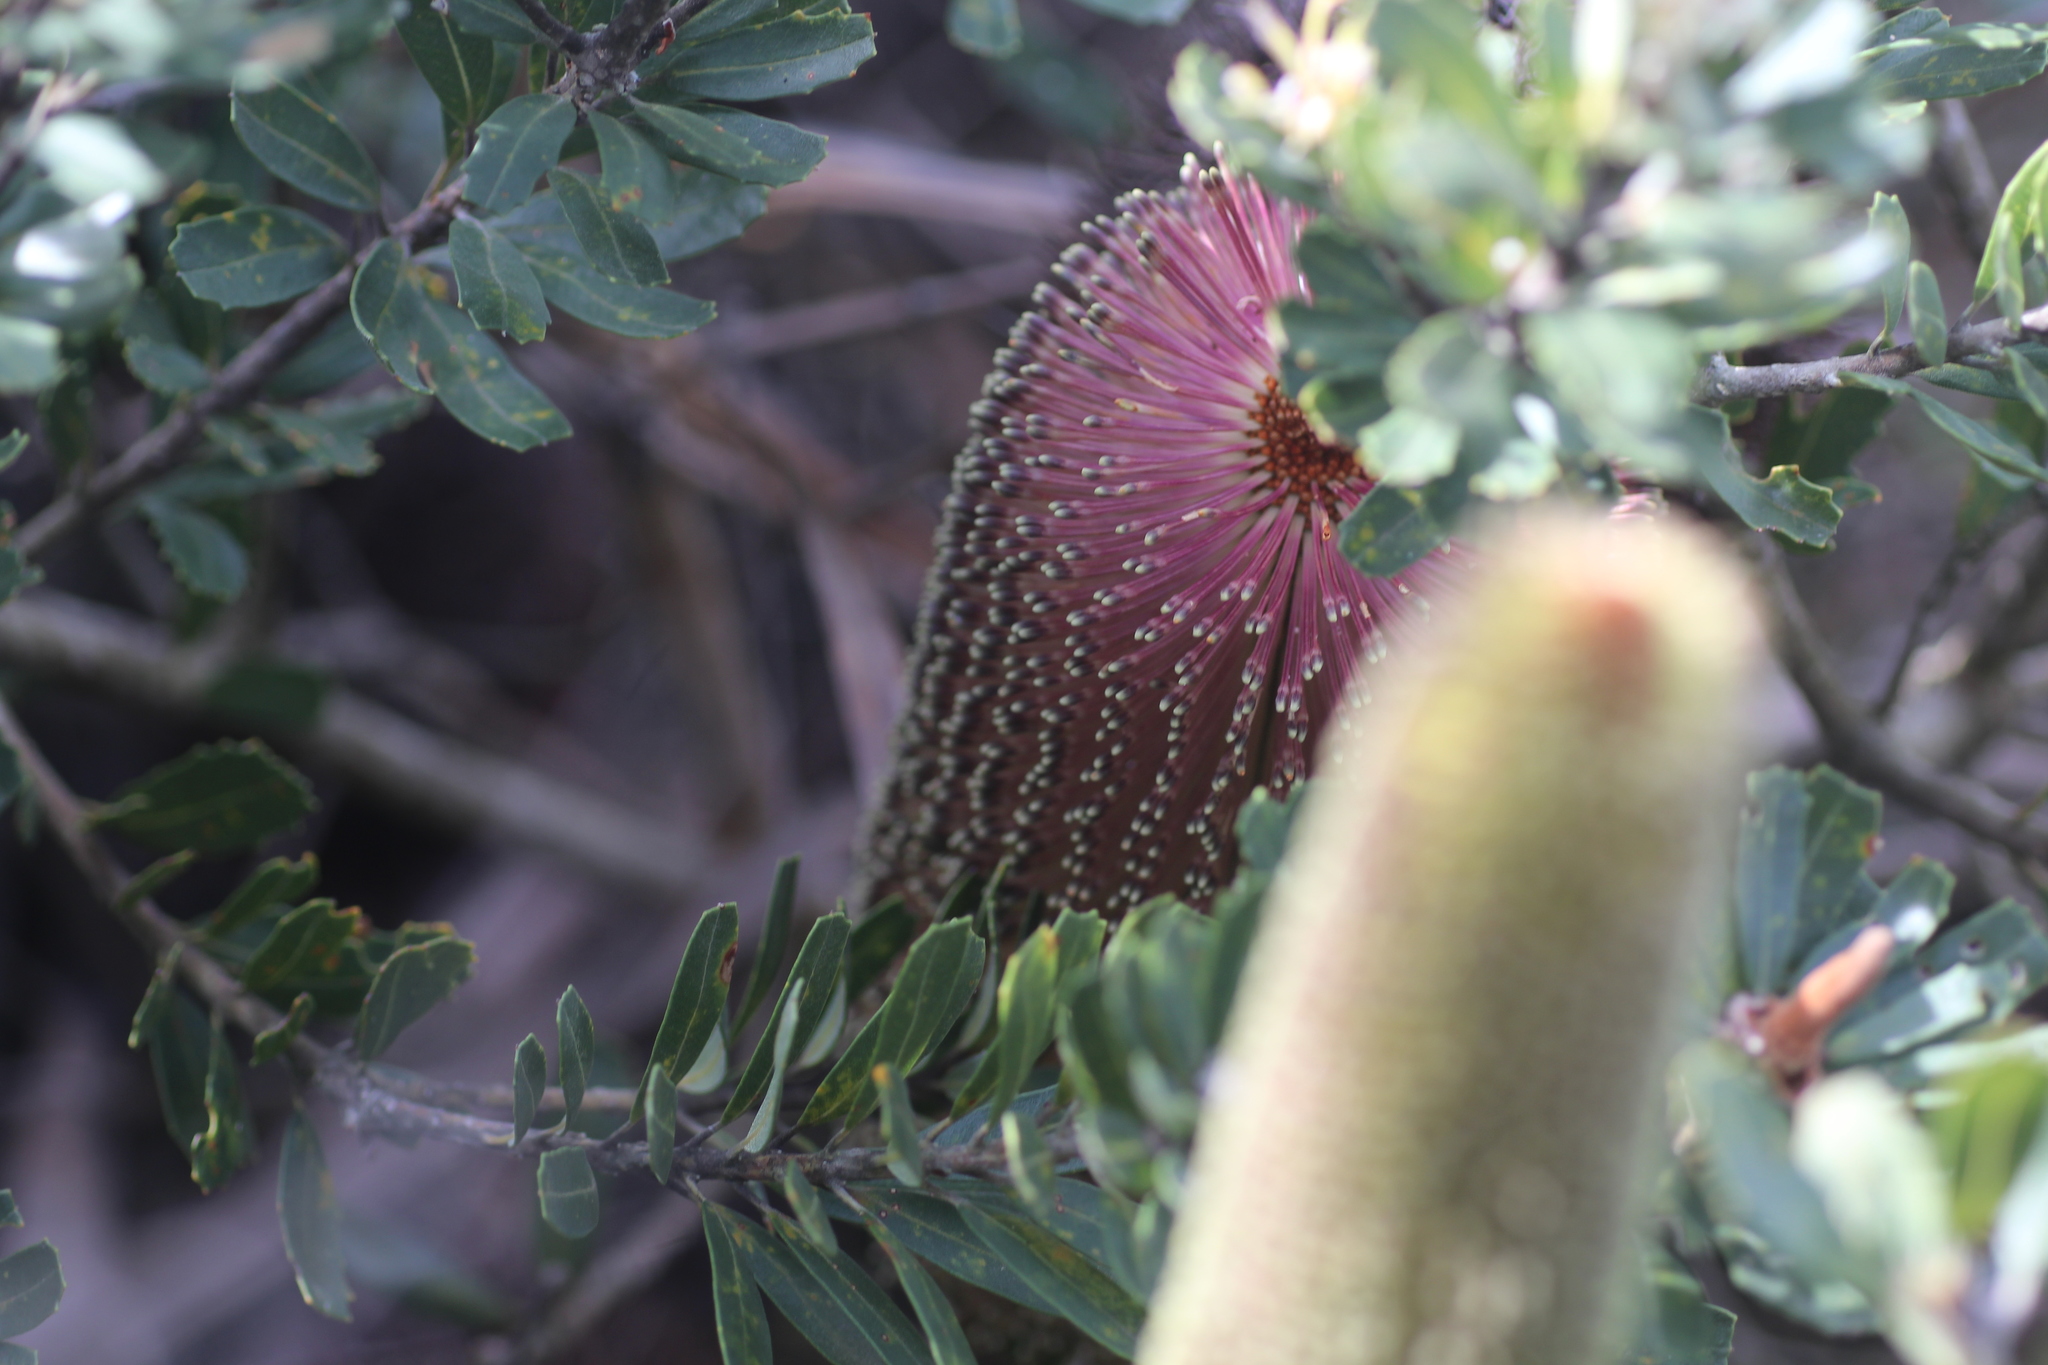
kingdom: Plantae
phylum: Tracheophyta
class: Magnoliopsida
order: Proteales
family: Proteaceae
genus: Banksia
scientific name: Banksia praemorsa
